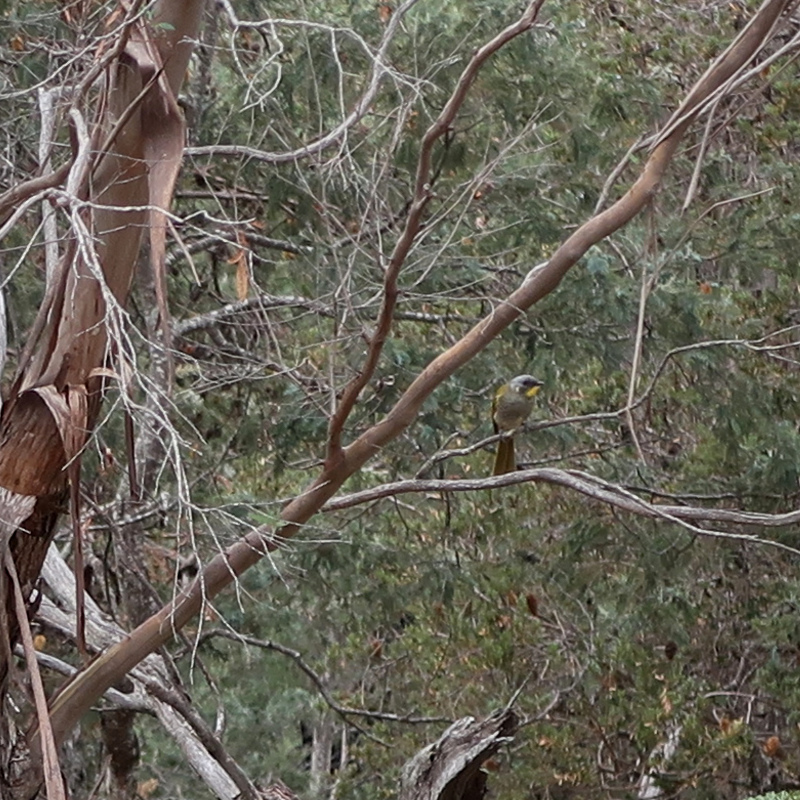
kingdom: Animalia
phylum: Chordata
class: Aves
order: Passeriformes
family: Meliphagidae
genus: Nesoptilotis
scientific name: Nesoptilotis flavicollis
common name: Yellow-throated honeyeater
